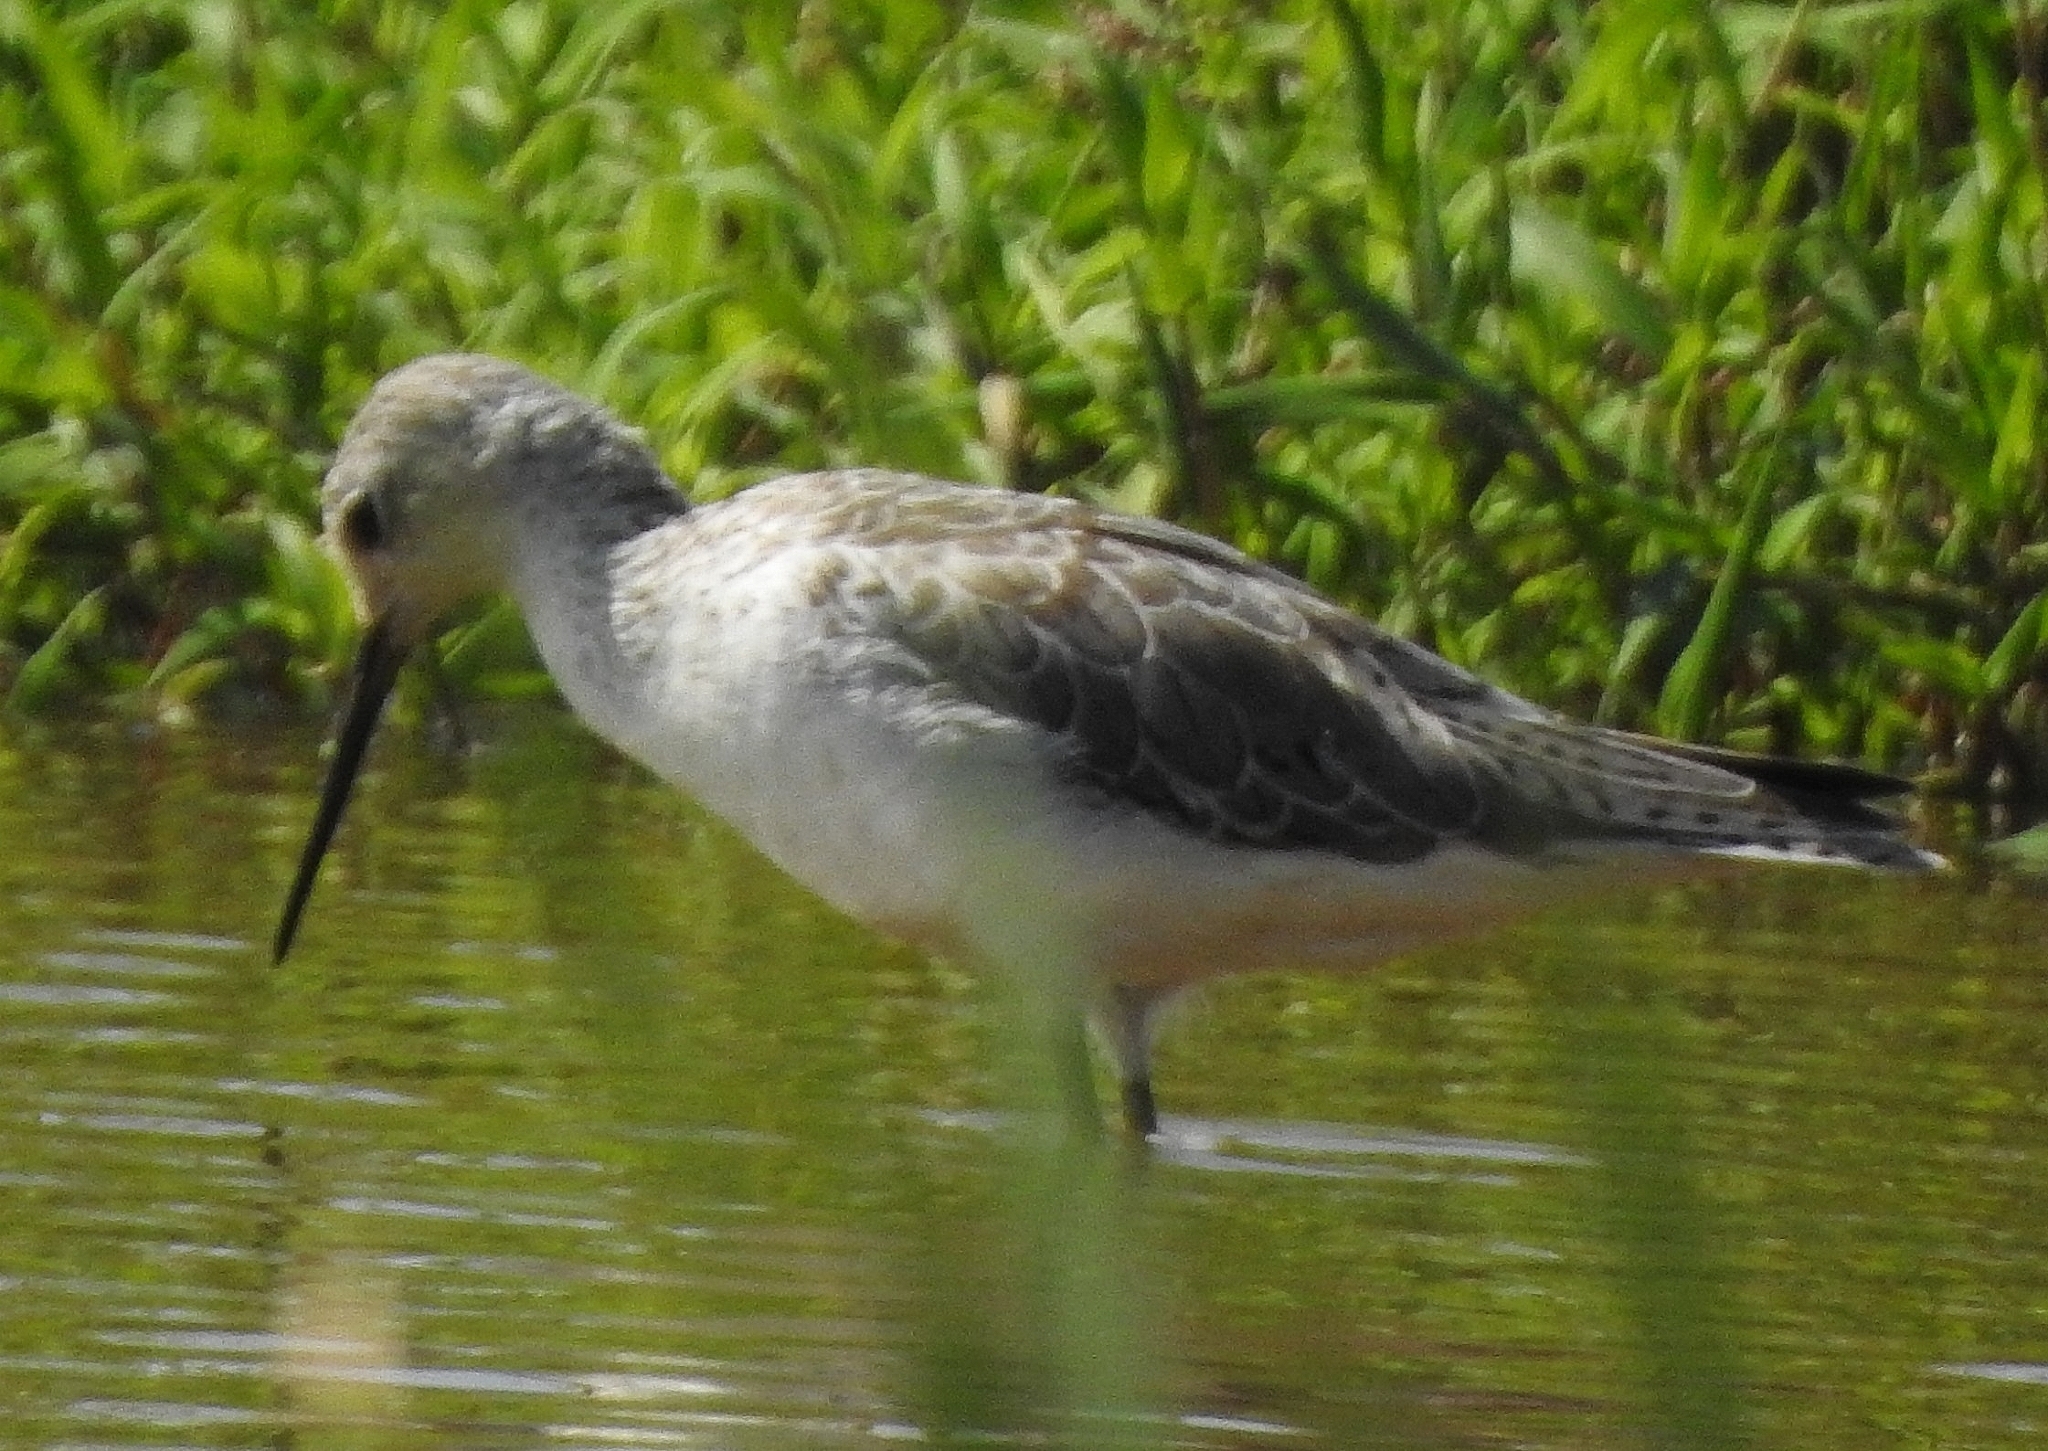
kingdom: Animalia
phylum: Chordata
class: Aves
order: Charadriiformes
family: Scolopacidae
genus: Tringa
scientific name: Tringa stagnatilis
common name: Marsh sandpiper
